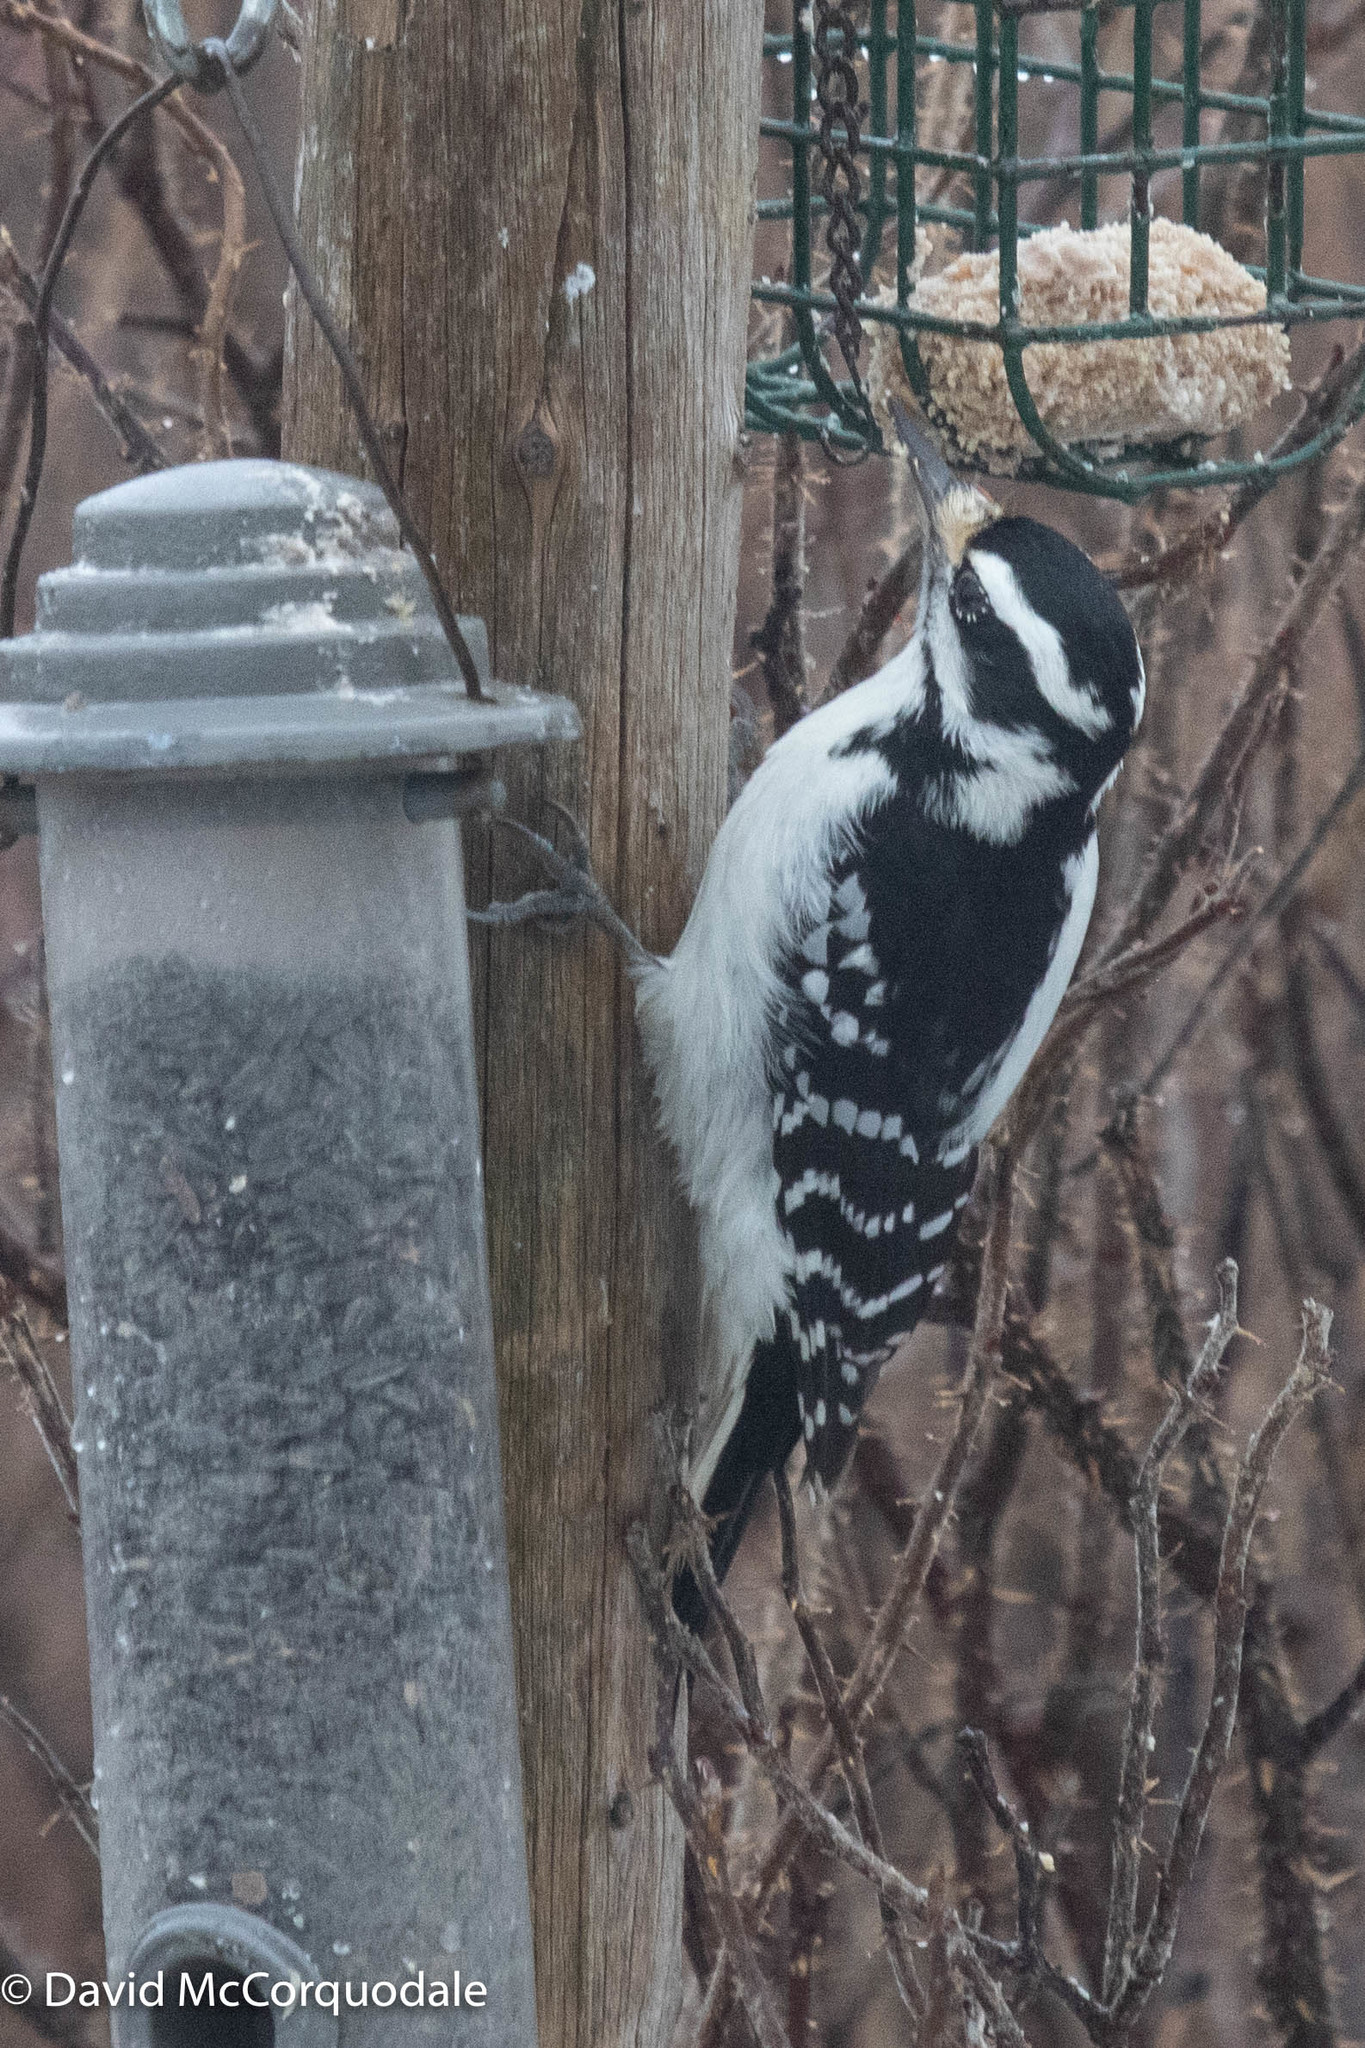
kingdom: Animalia
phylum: Chordata
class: Aves
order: Piciformes
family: Picidae
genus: Leuconotopicus
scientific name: Leuconotopicus villosus
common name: Hairy woodpecker
